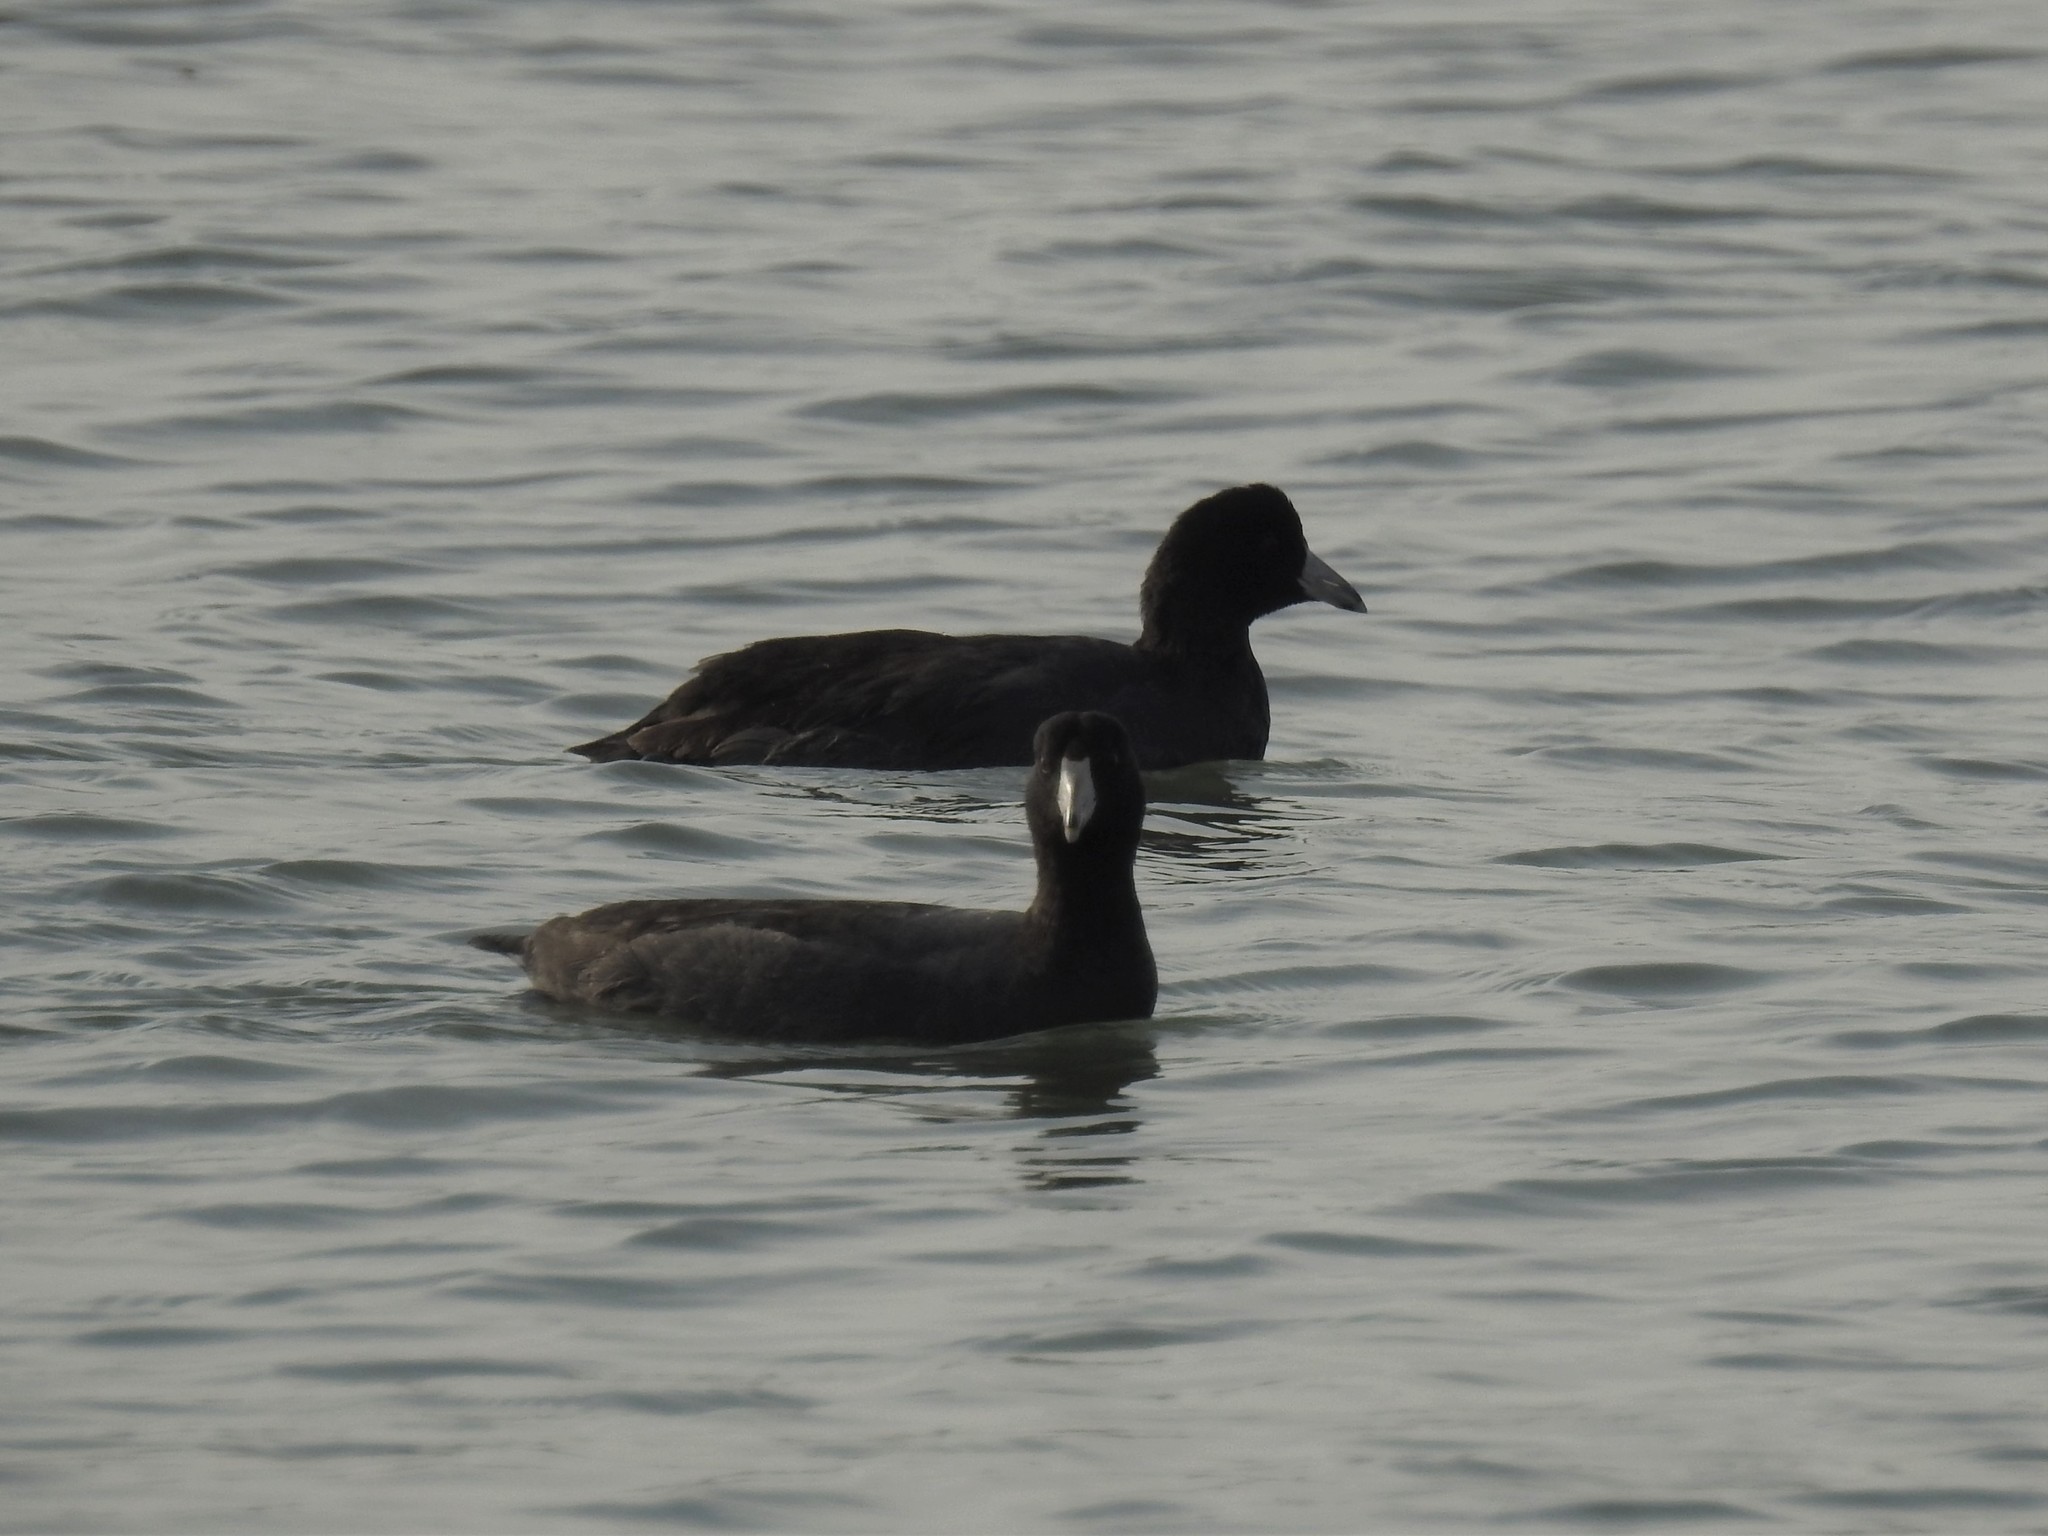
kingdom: Animalia
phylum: Chordata
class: Aves
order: Gruiformes
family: Rallidae
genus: Fulica
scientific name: Fulica americana
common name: American coot
